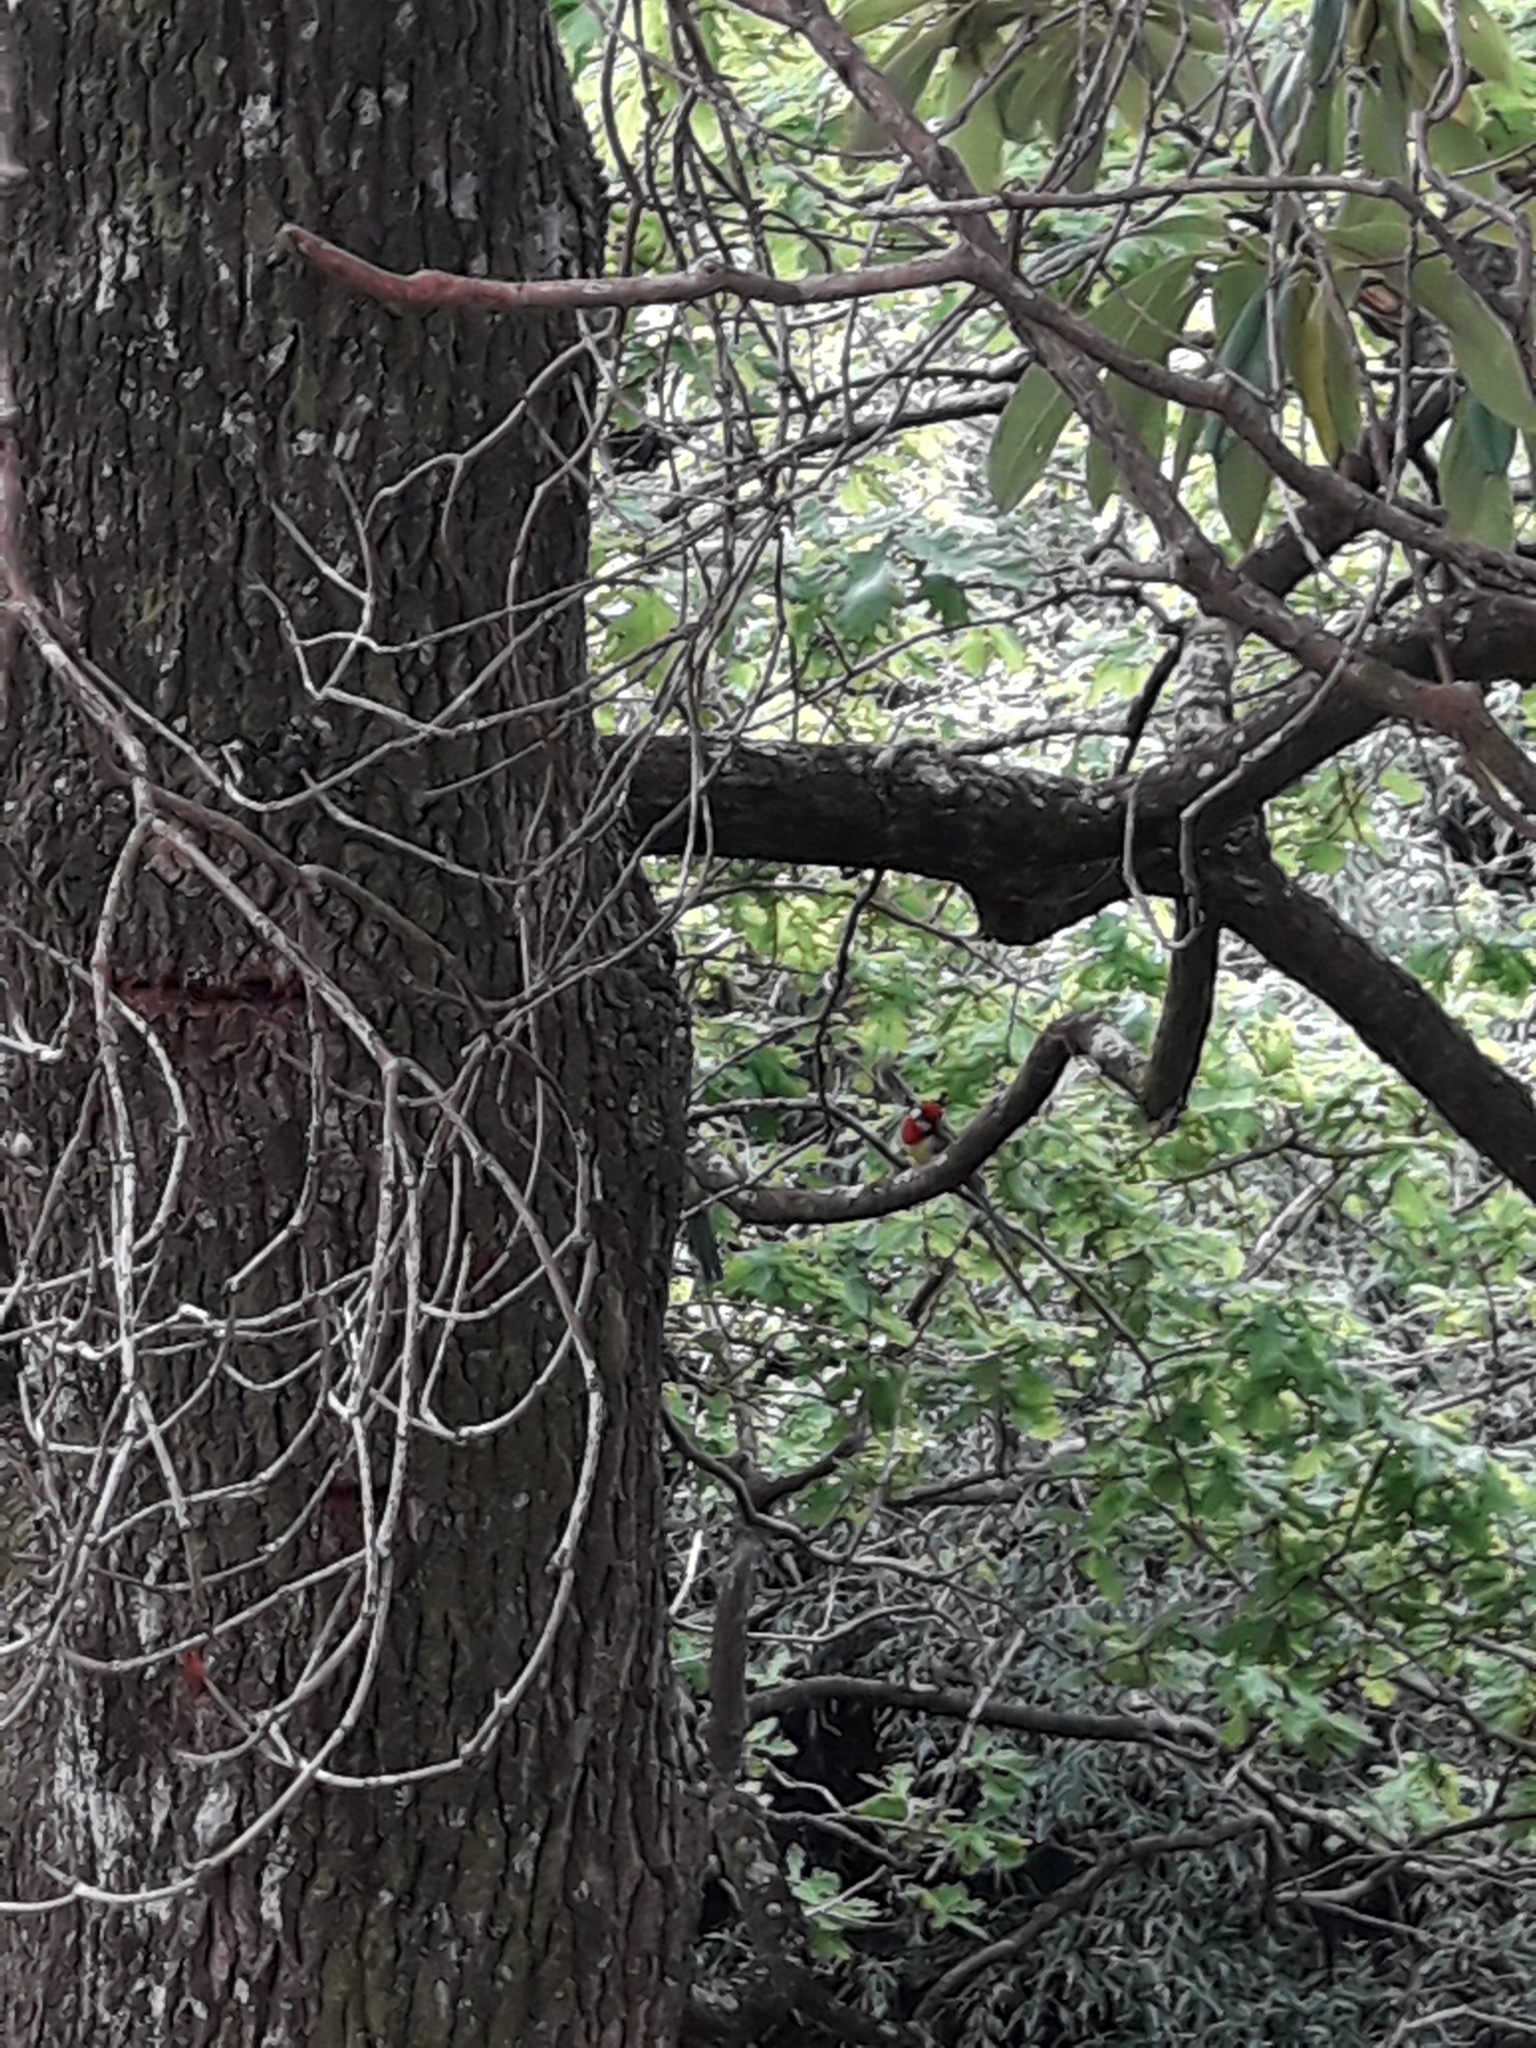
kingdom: Animalia
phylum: Chordata
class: Aves
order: Psittaciformes
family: Psittacidae
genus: Platycercus
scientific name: Platycercus eximius
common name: Eastern rosella
